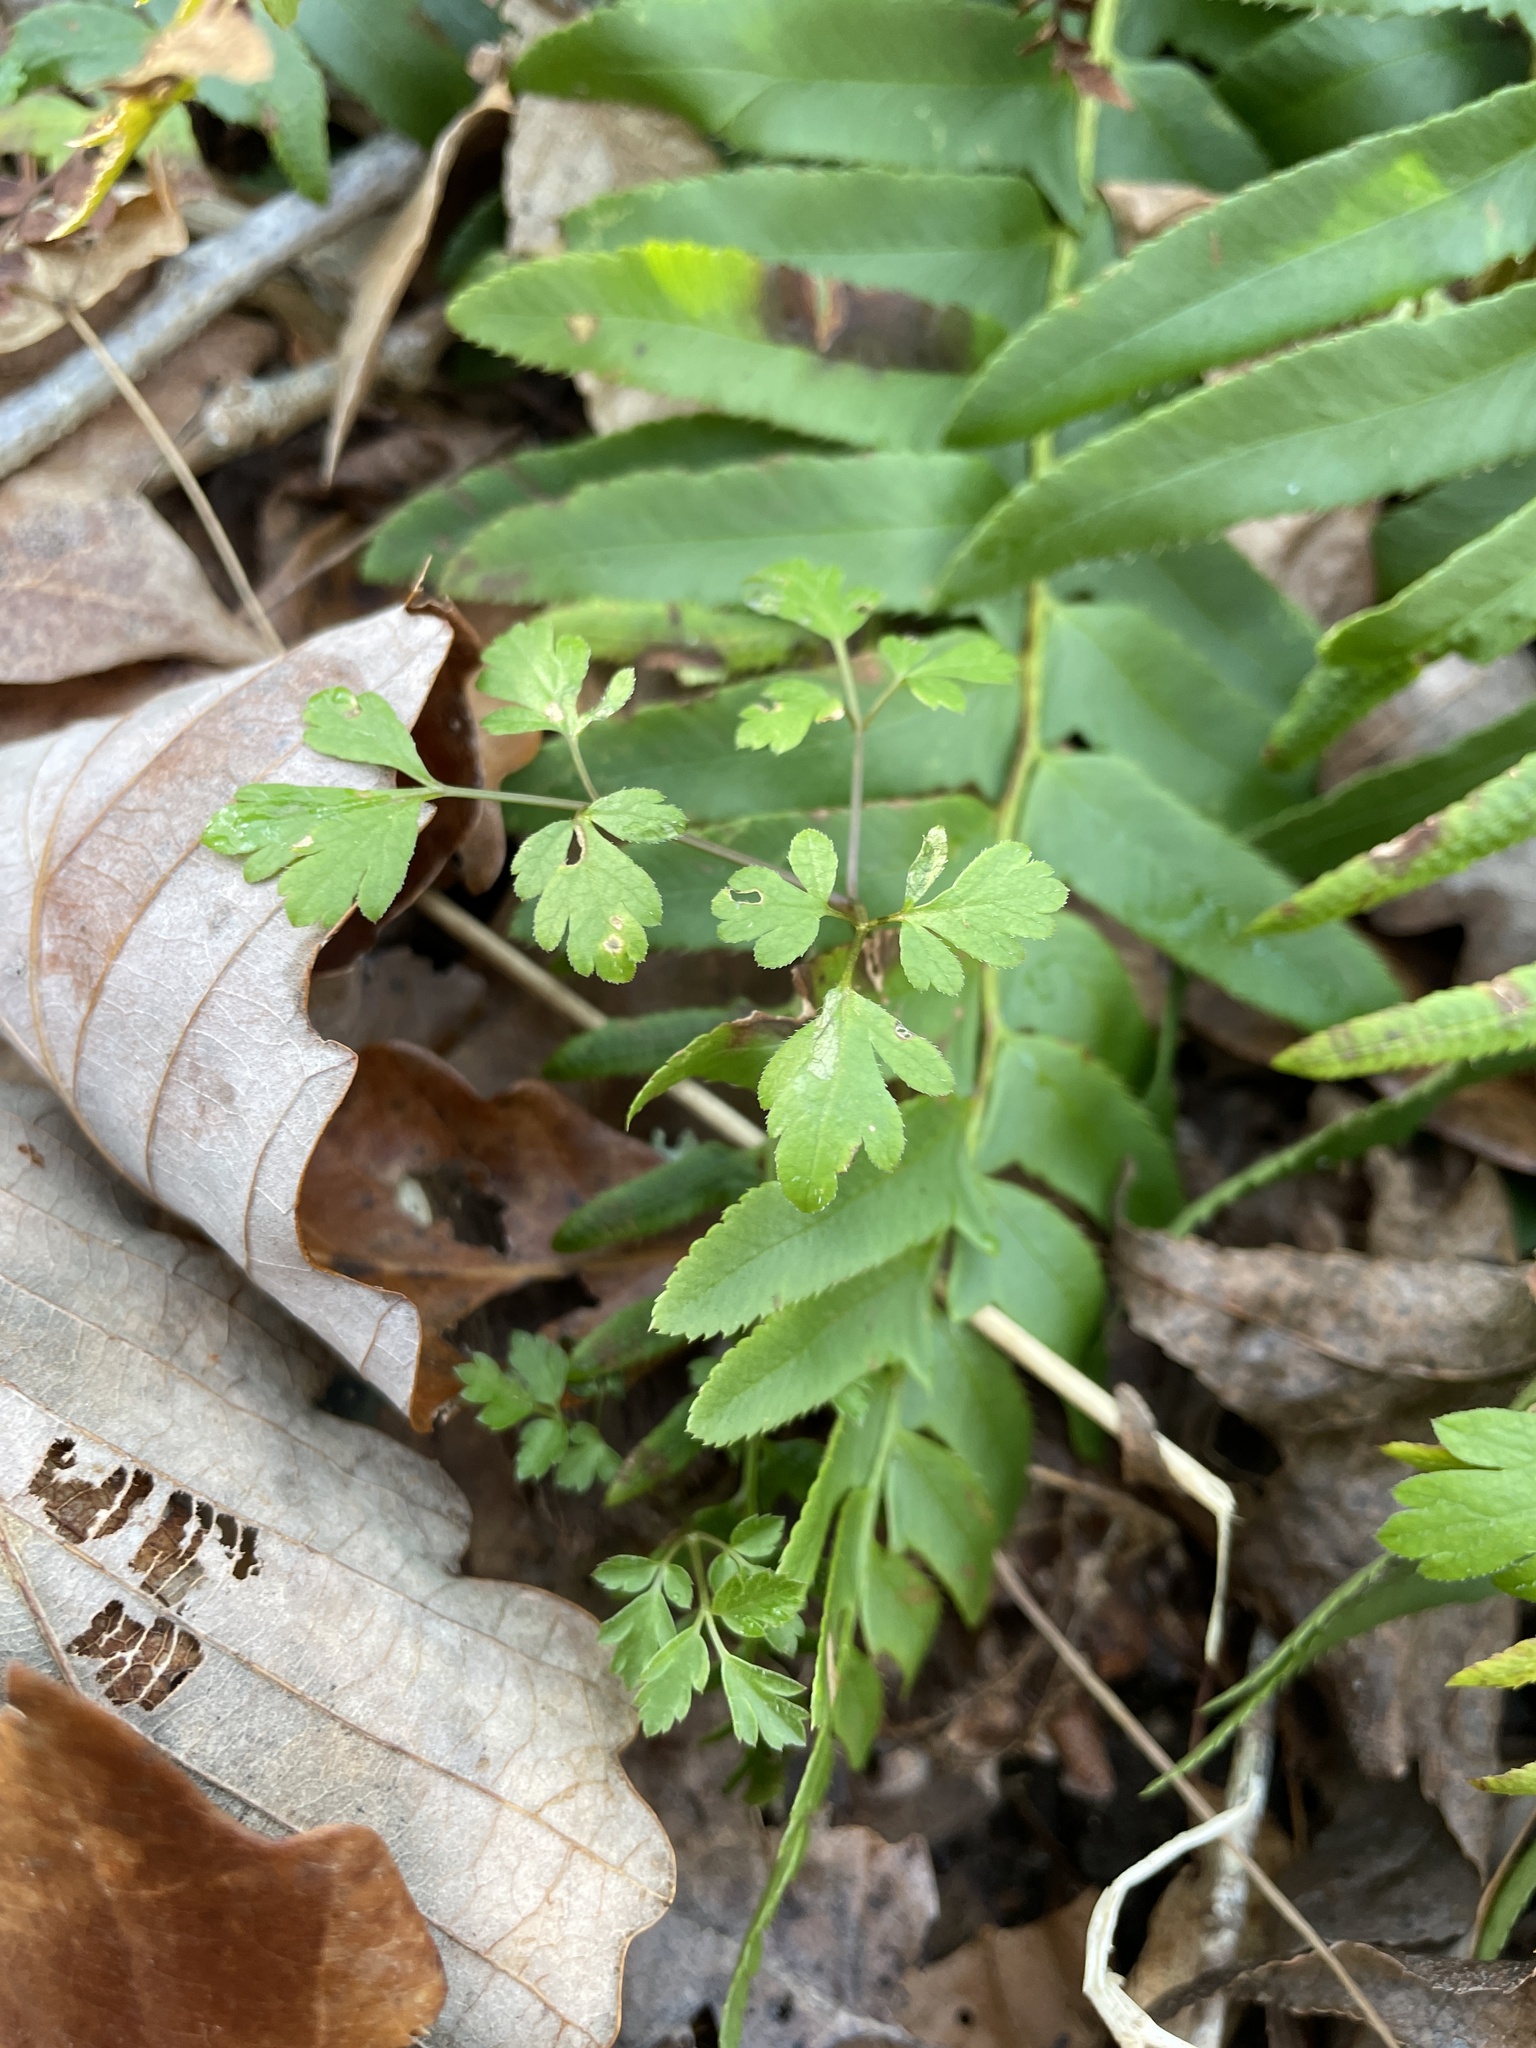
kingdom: Plantae
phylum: Tracheophyta
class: Magnoliopsida
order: Boraginales
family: Hydrophyllaceae
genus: Phacelia
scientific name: Phacelia covillei
